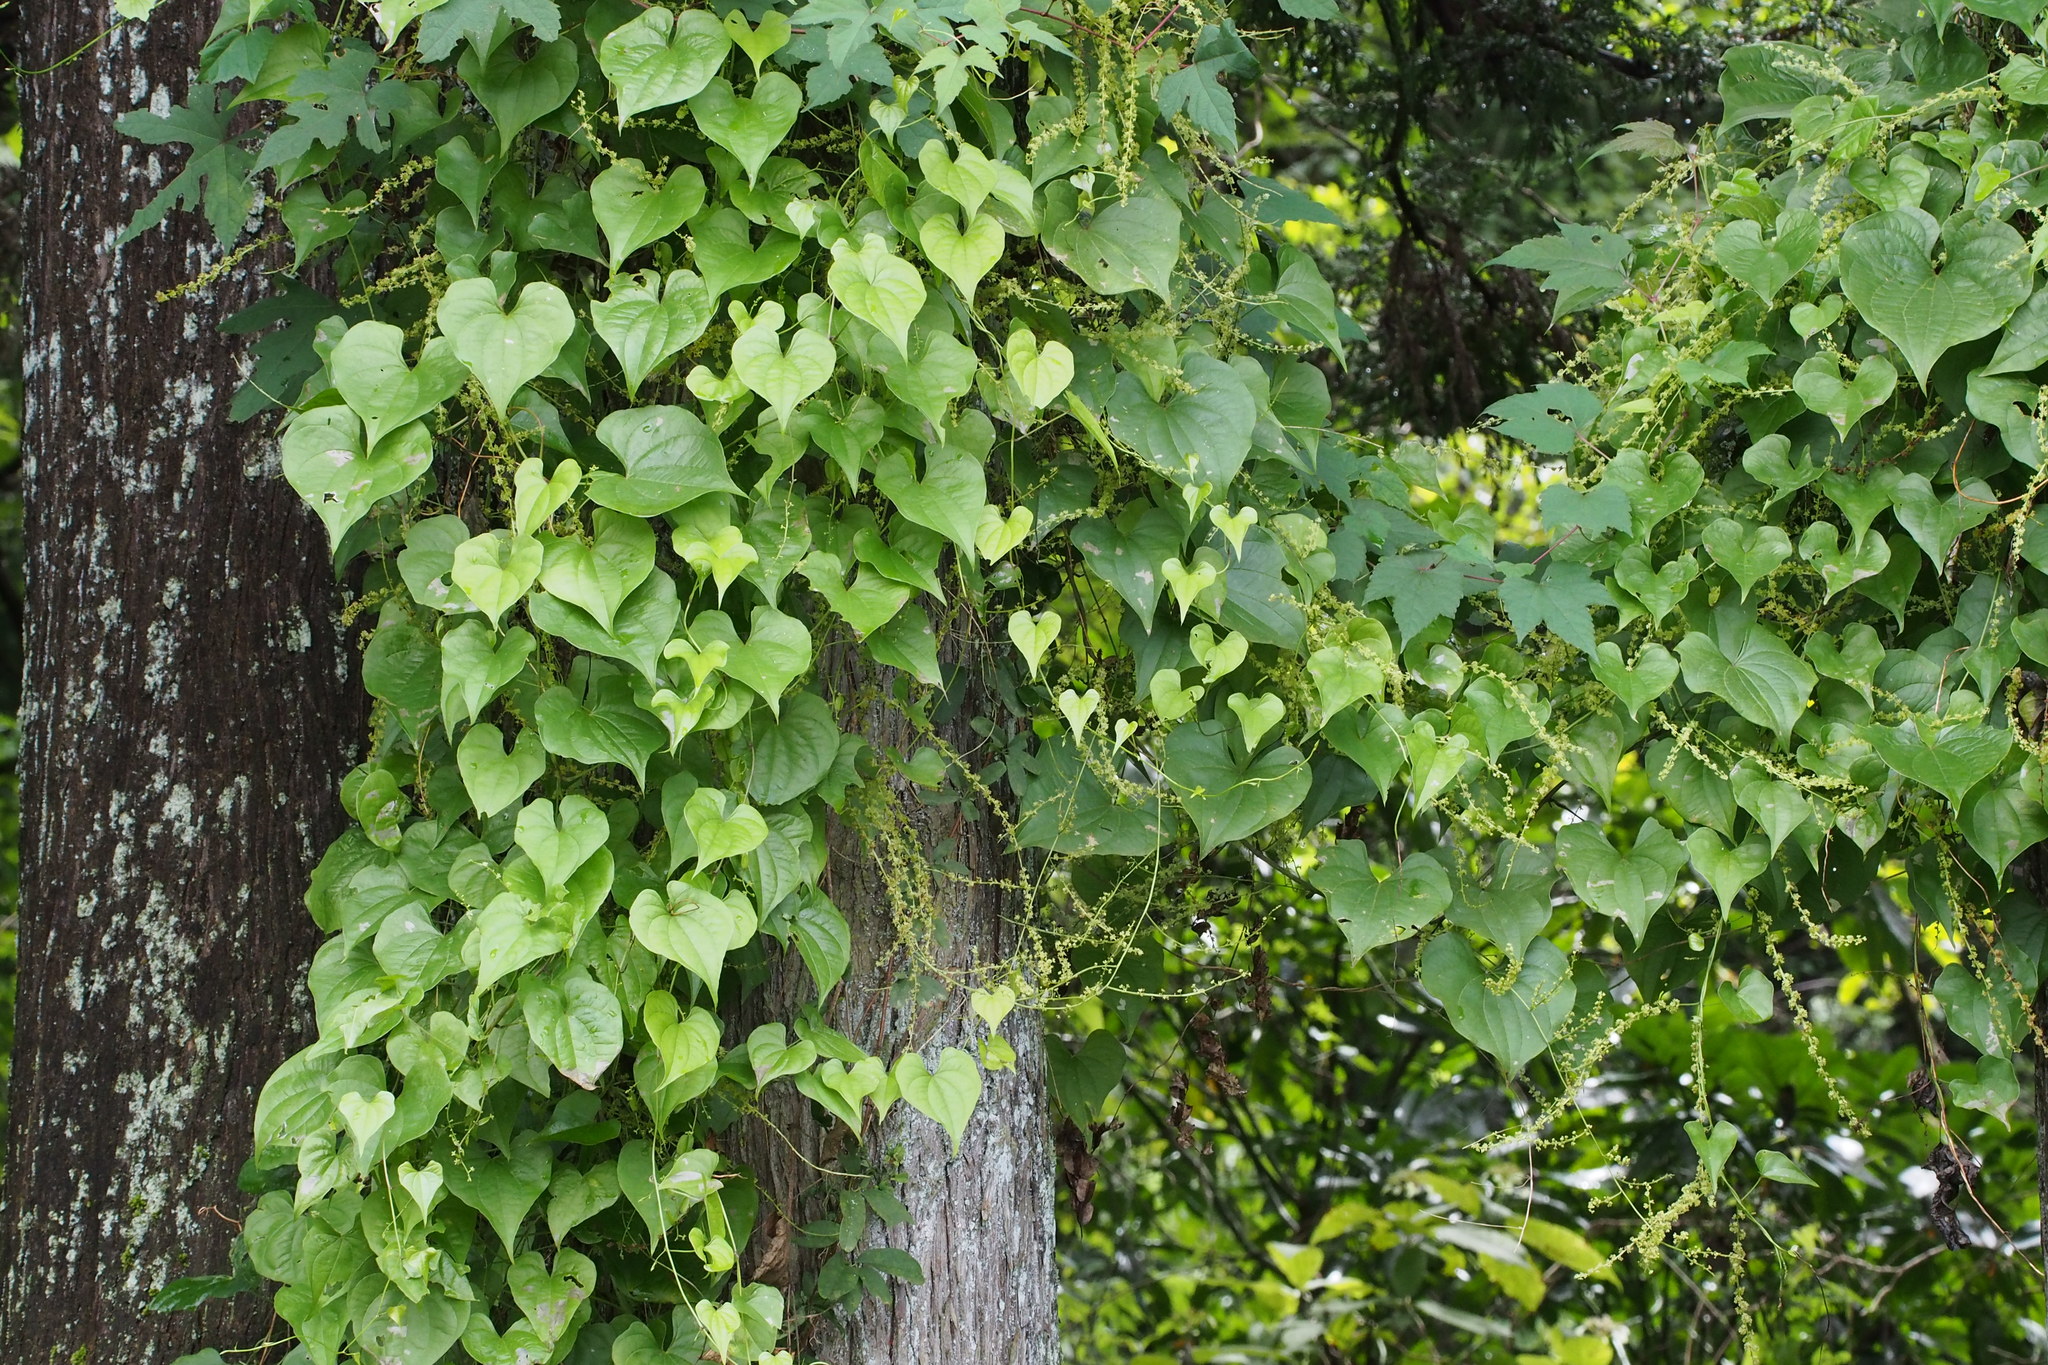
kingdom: Plantae
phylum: Tracheophyta
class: Liliopsida
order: Dioscoreales
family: Dioscoreaceae
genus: Dioscorea
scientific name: Dioscorea tokoro
